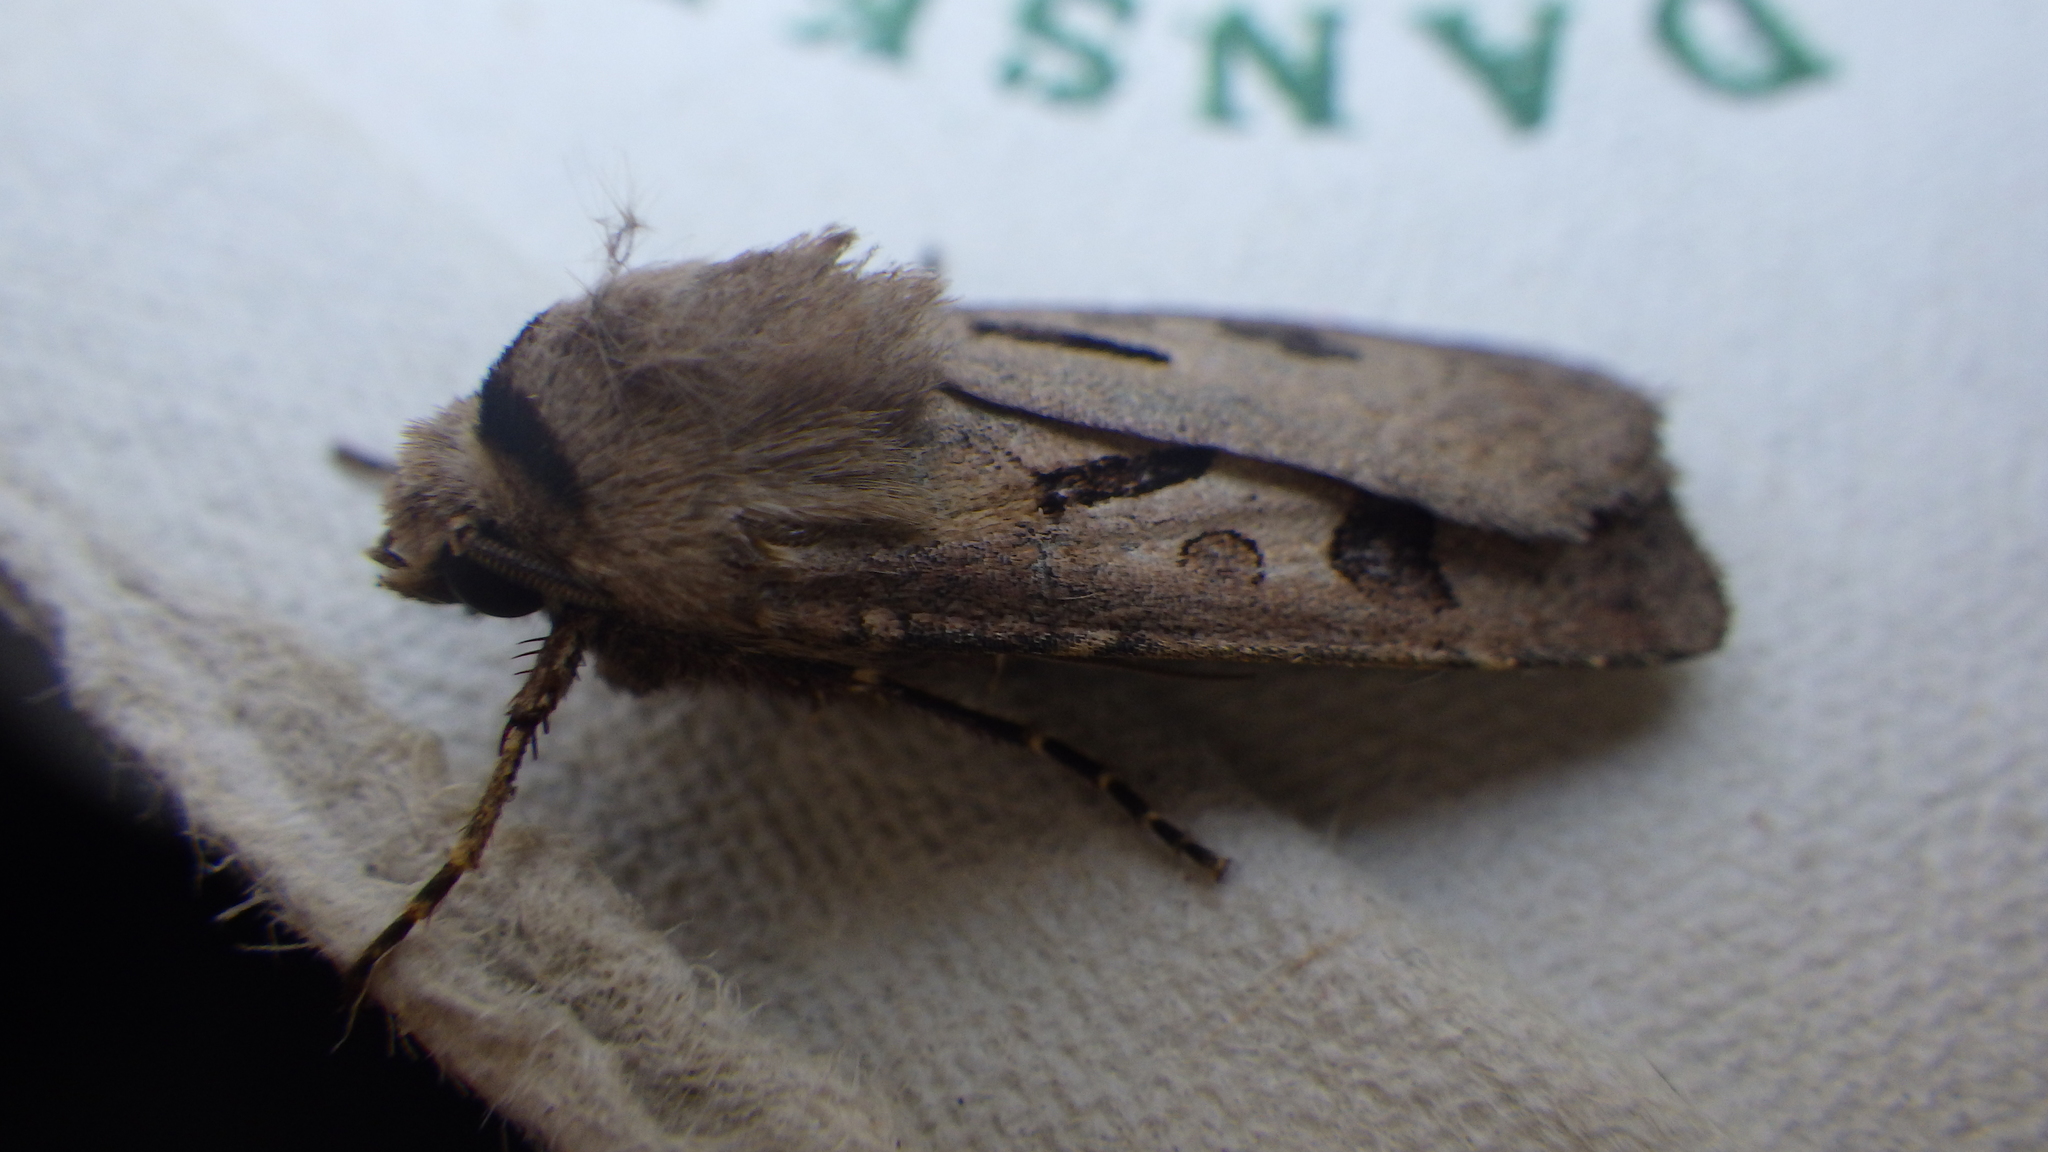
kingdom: Animalia
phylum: Arthropoda
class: Insecta
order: Lepidoptera
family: Noctuidae
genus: Agrotis
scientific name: Agrotis exclamationis
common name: Heart and dart
